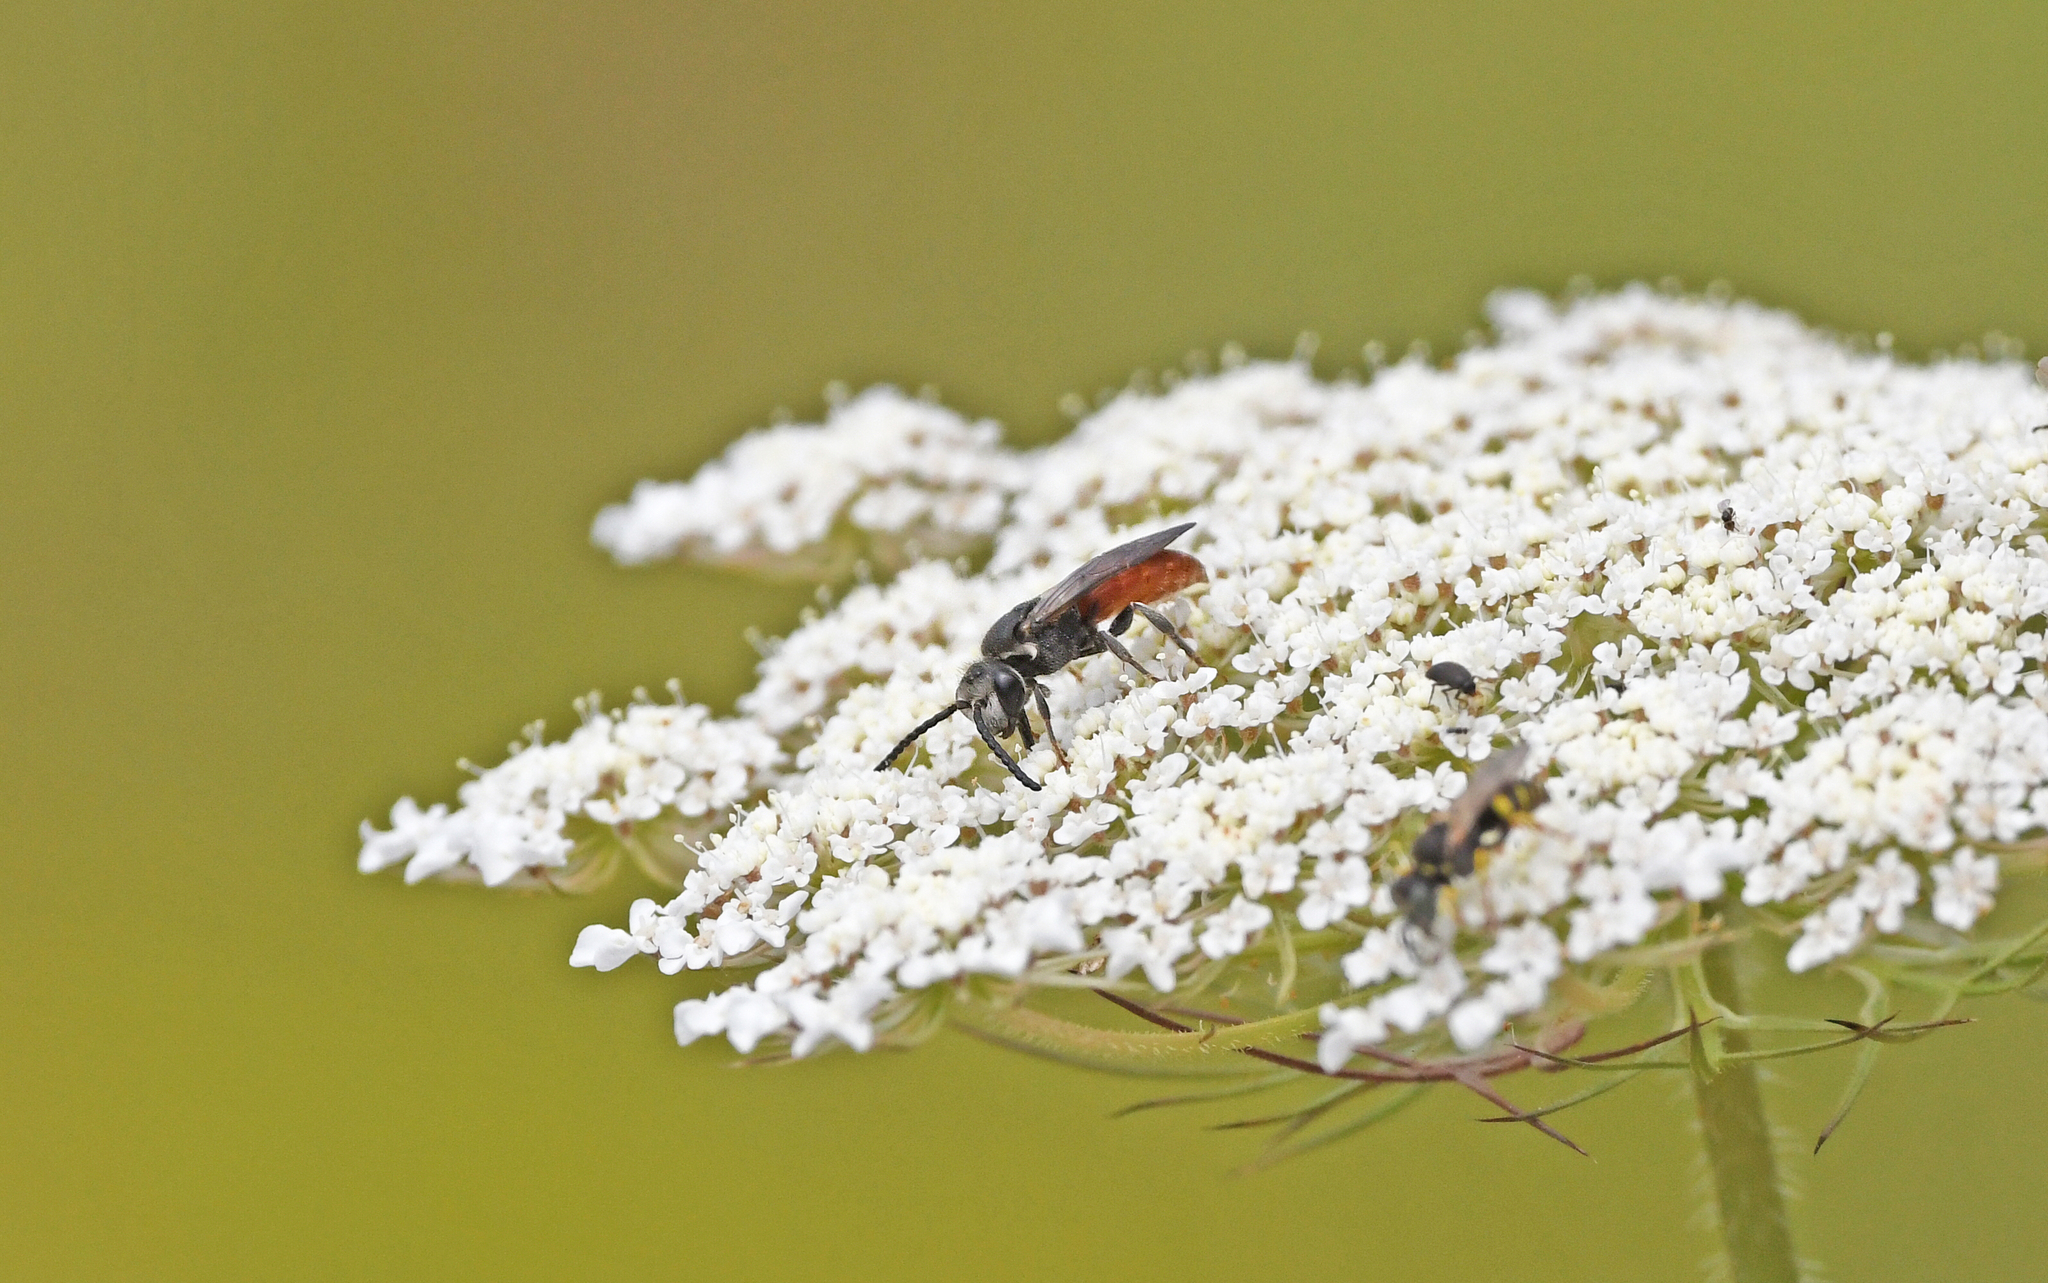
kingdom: Animalia
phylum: Arthropoda
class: Insecta
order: Hymenoptera
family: Halictidae
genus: Sphecodes
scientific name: Sphecodes albilabris
